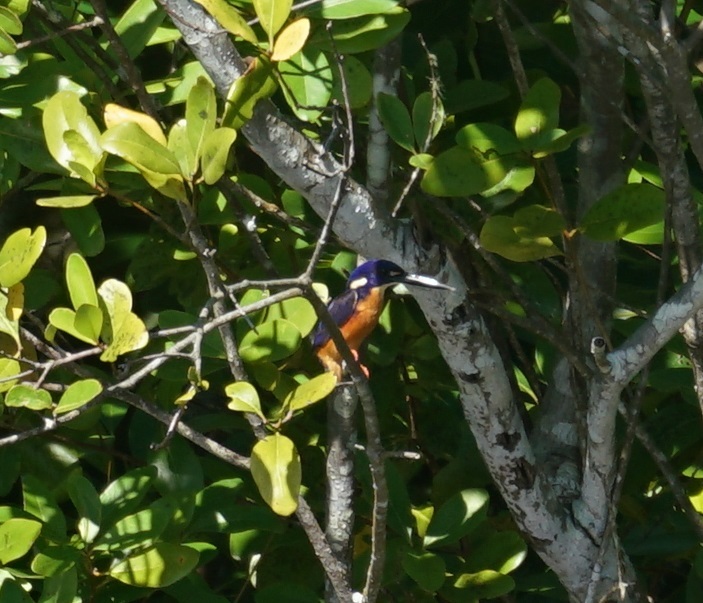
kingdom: Animalia
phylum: Chordata
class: Aves
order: Coraciiformes
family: Alcedinidae
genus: Ceyx
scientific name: Ceyx azureus
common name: Azure kingfisher
